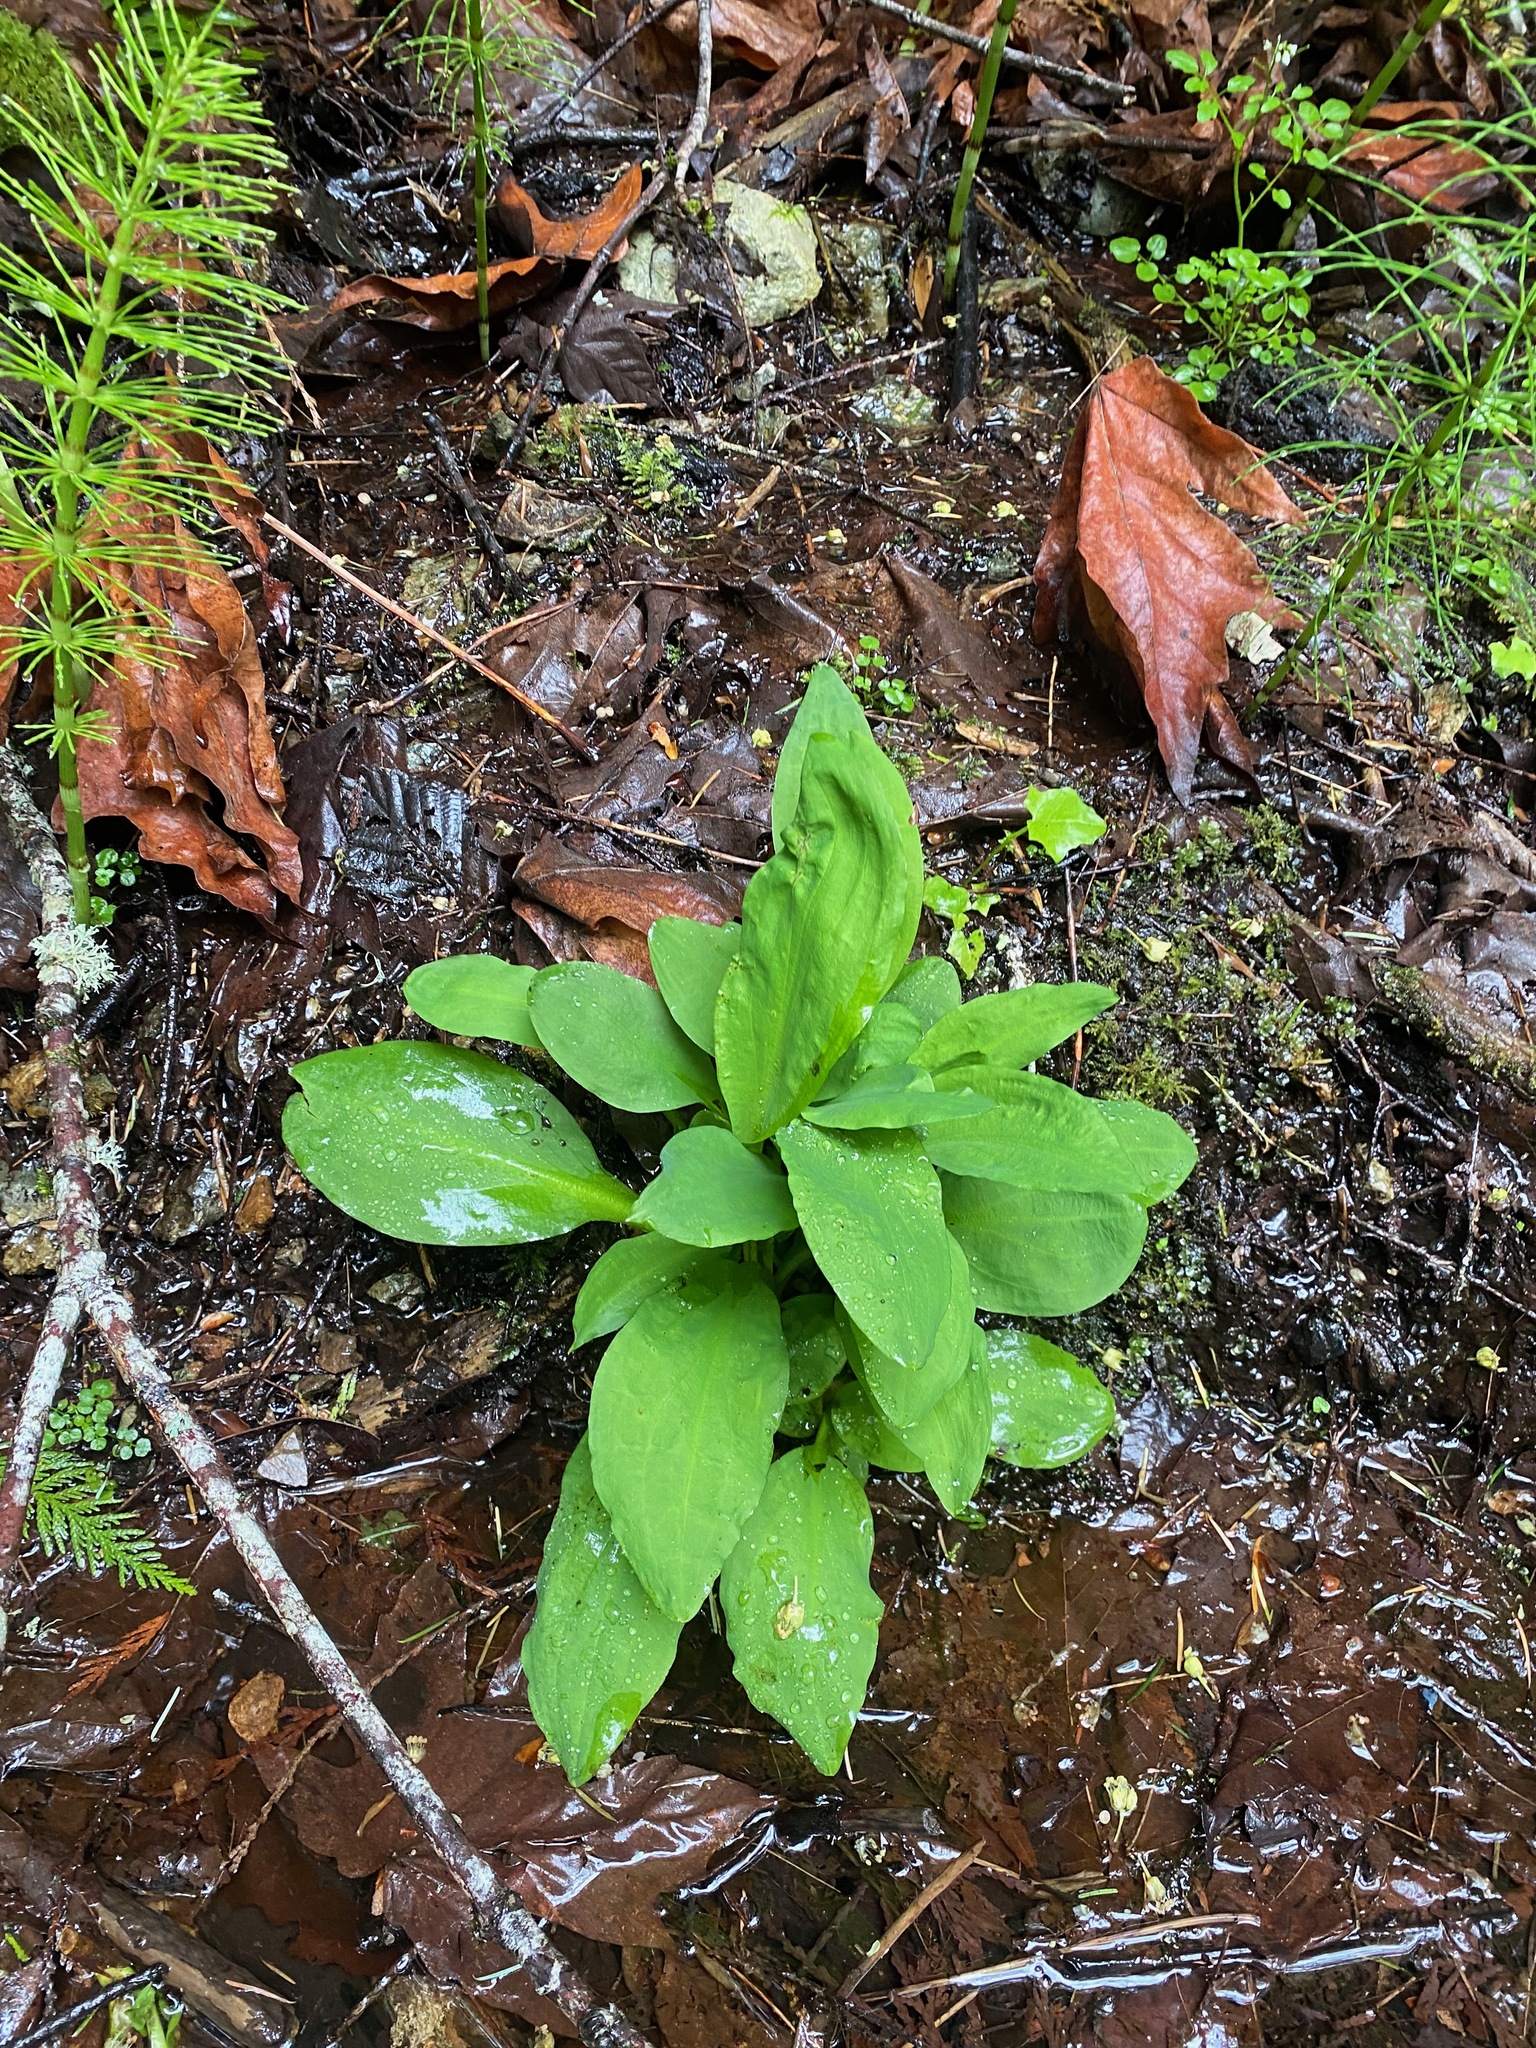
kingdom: Plantae
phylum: Tracheophyta
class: Liliopsida
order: Alismatales
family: Araceae
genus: Lysichiton
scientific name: Lysichiton americanus
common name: American skunk cabbage
